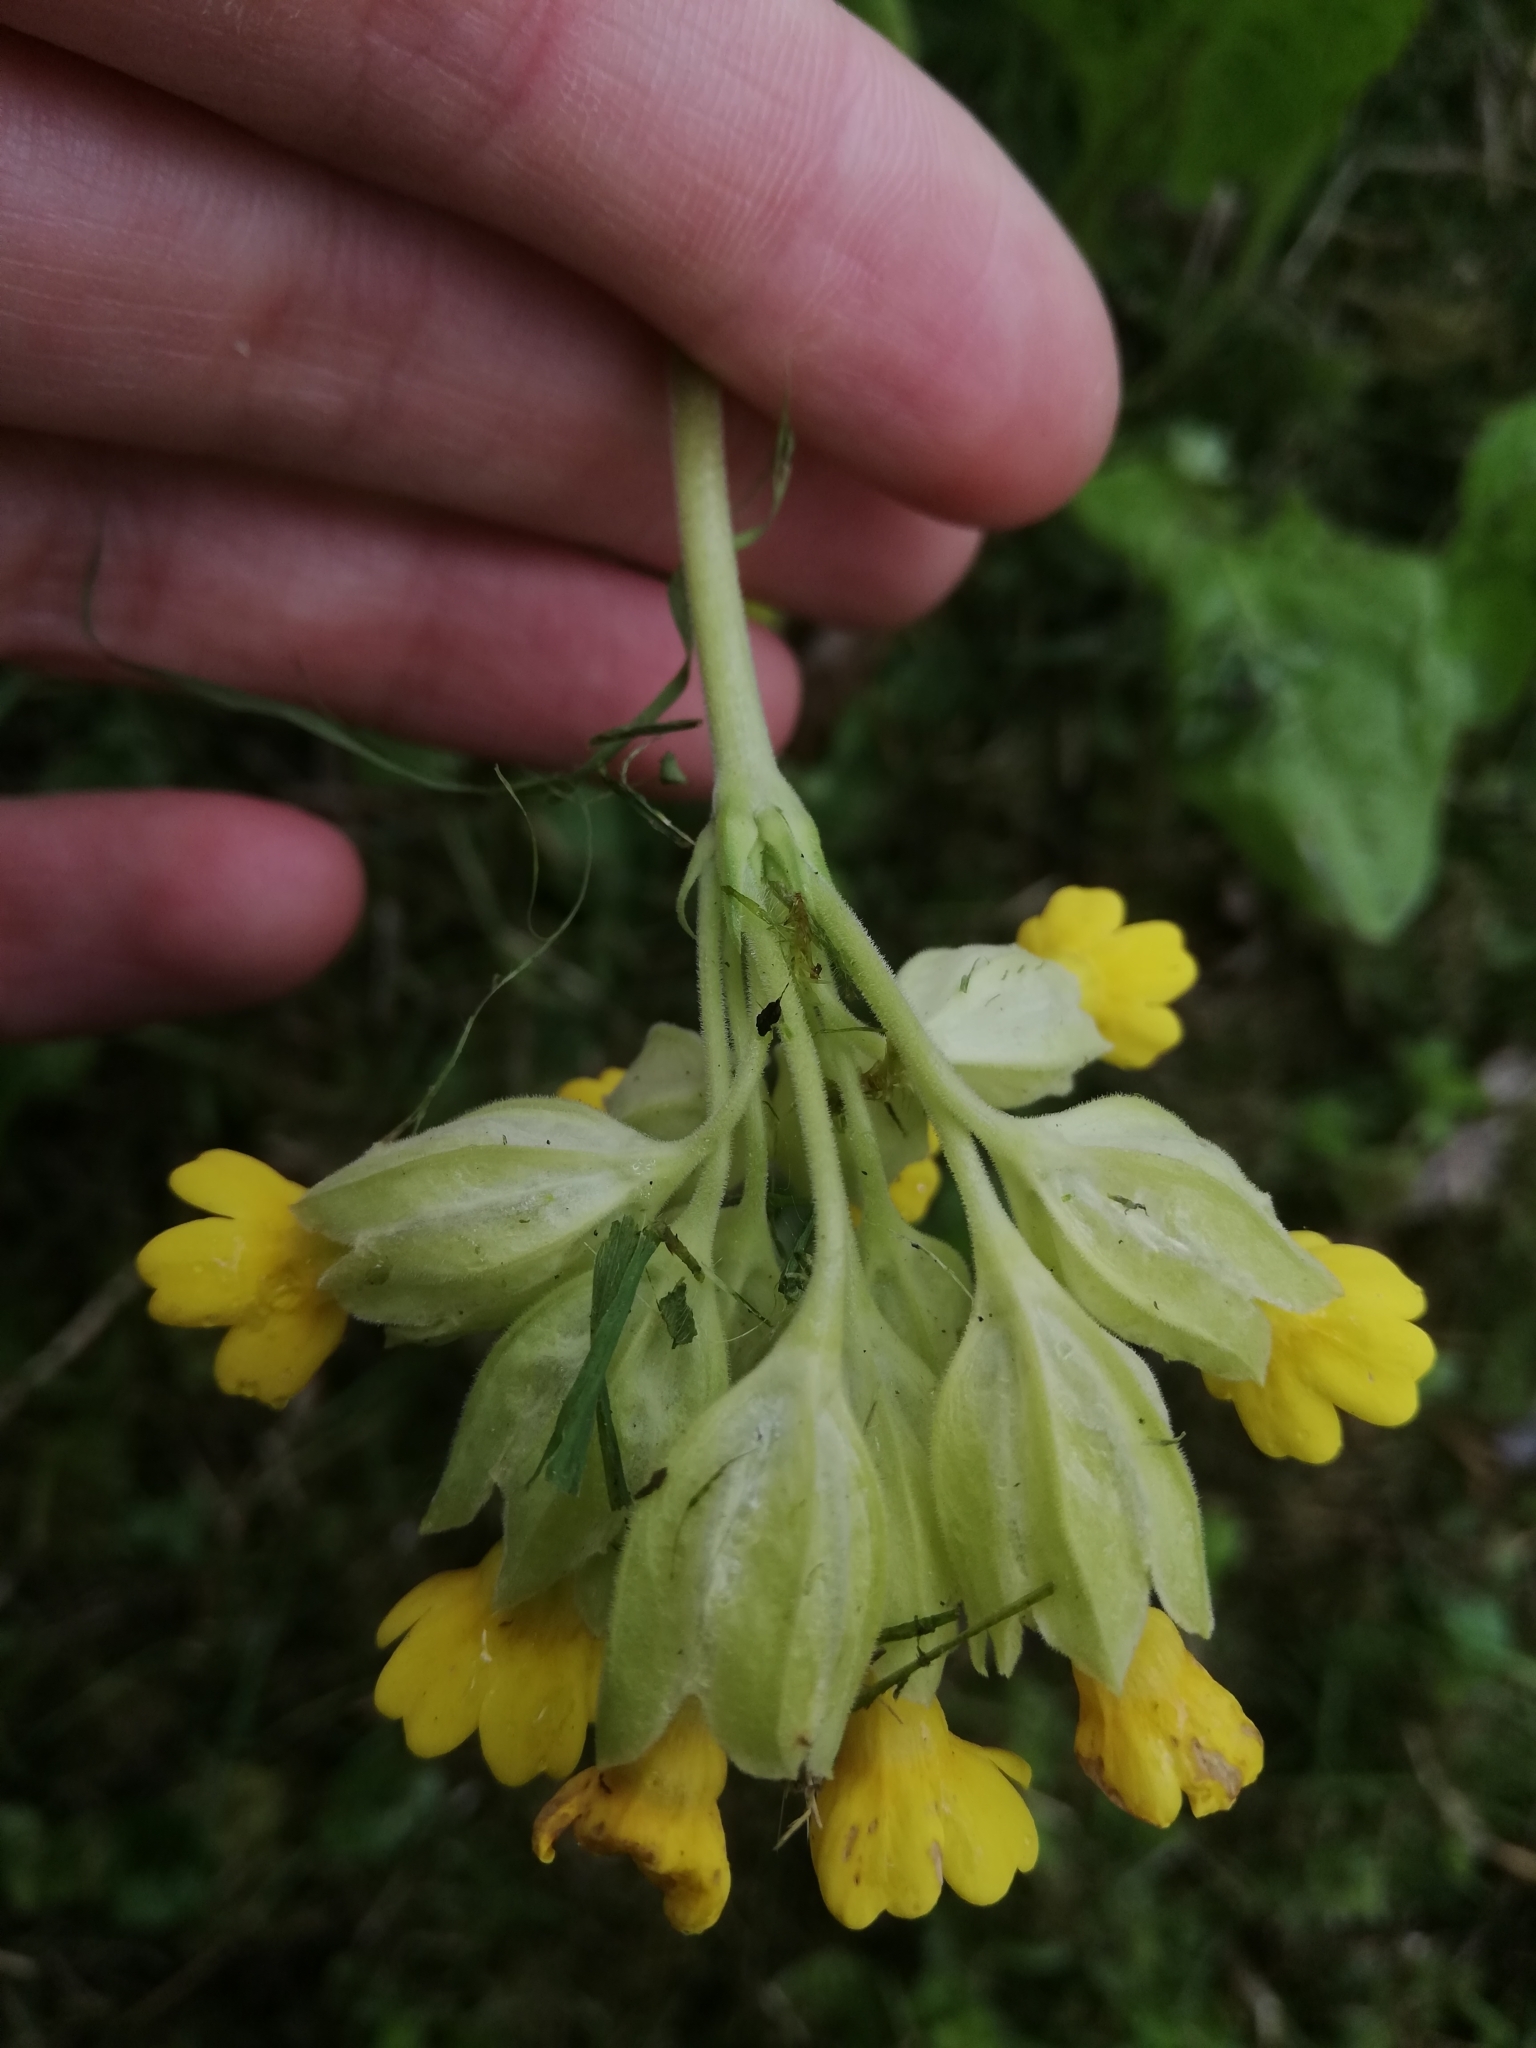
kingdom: Plantae
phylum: Tracheophyta
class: Magnoliopsida
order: Ericales
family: Primulaceae
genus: Primula
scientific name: Primula veris
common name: Cowslip
